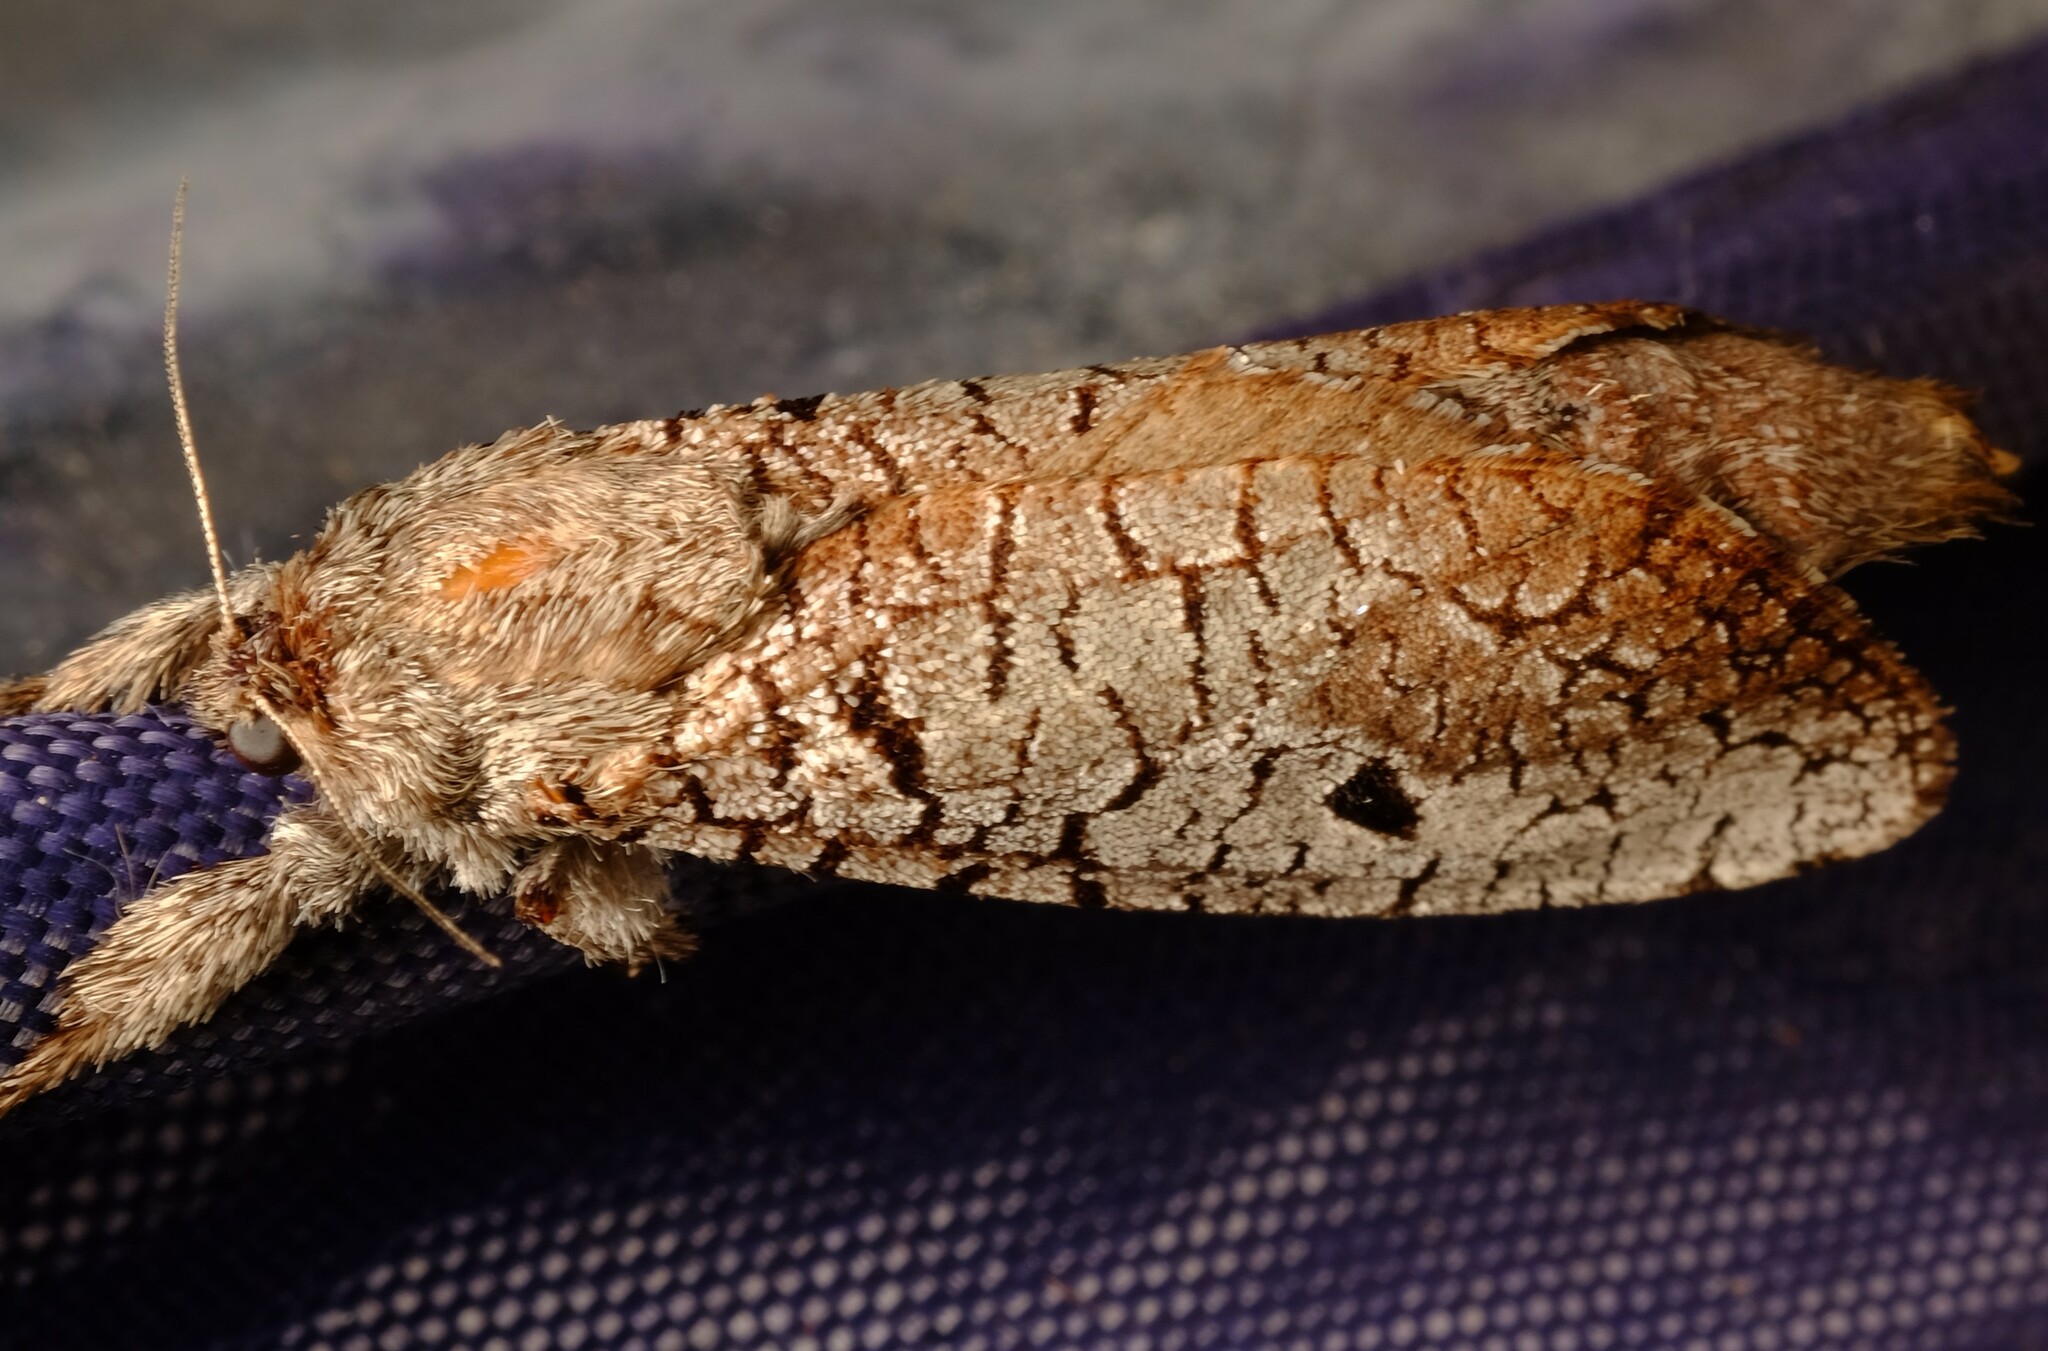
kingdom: Animalia
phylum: Arthropoda
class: Insecta
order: Lepidoptera
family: Cossidae
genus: Sympycnodes
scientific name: Sympycnodes
